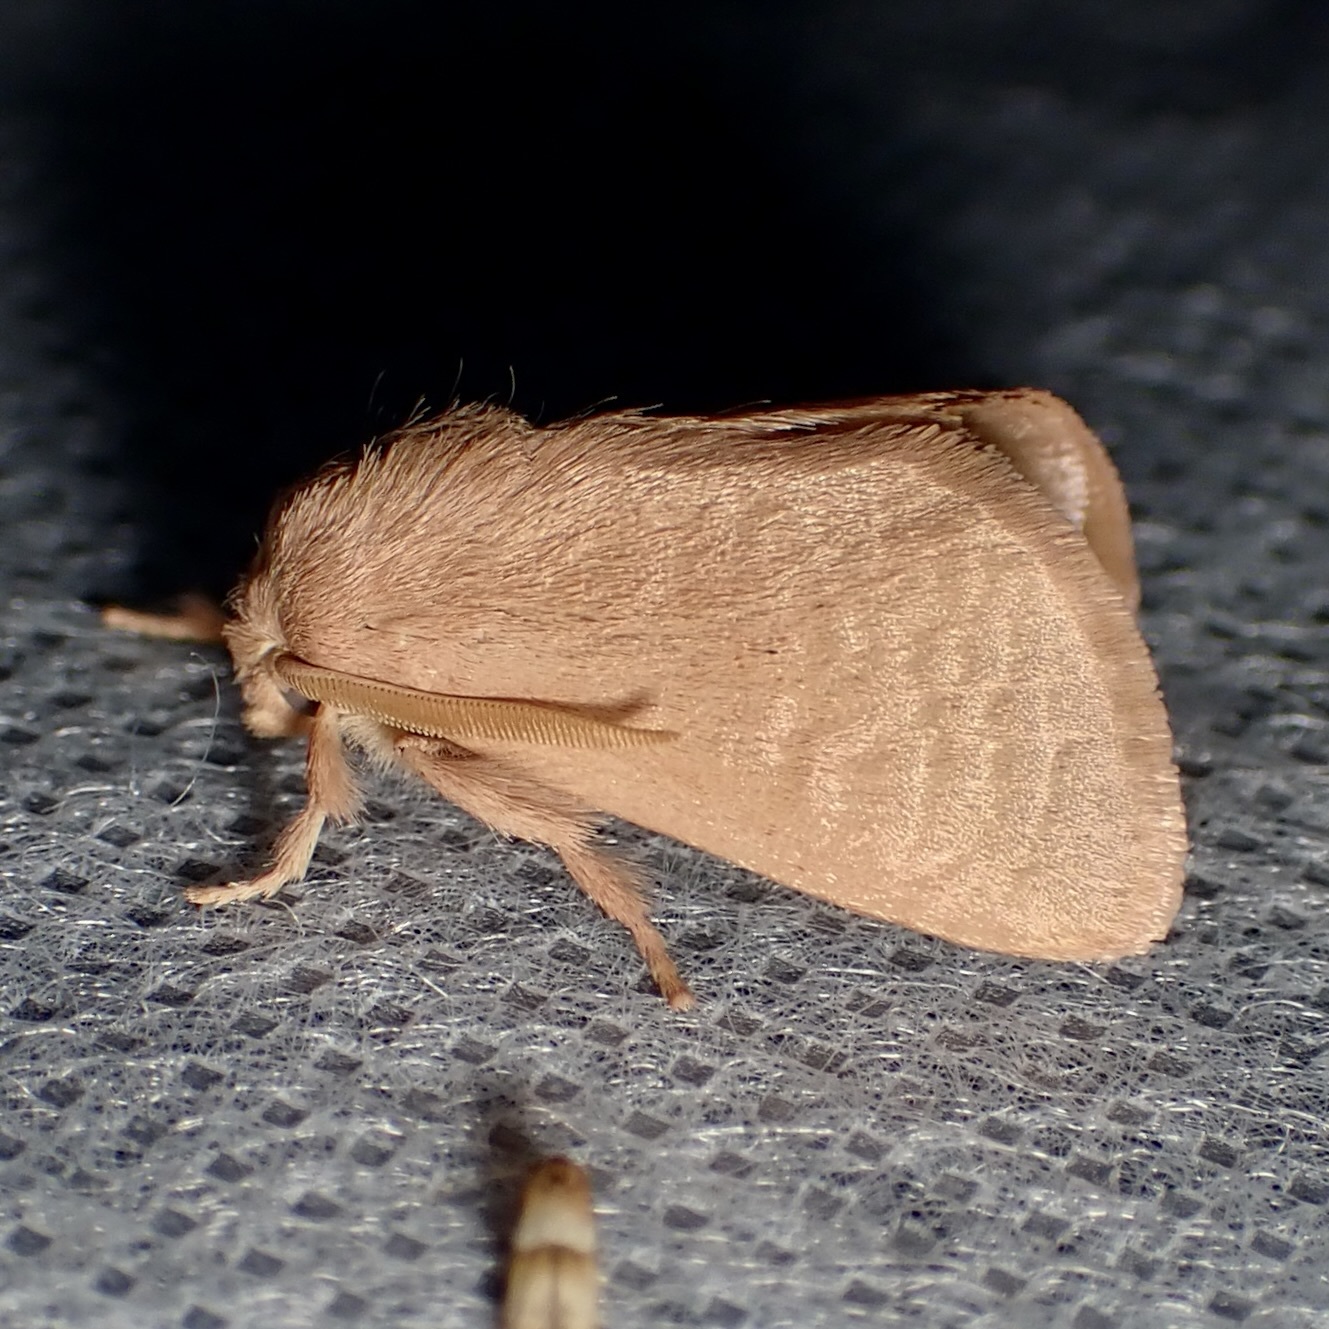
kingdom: Animalia
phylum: Arthropoda
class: Insecta
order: Lepidoptera
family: Limacodidae
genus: Isa
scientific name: Isa schaefferana
